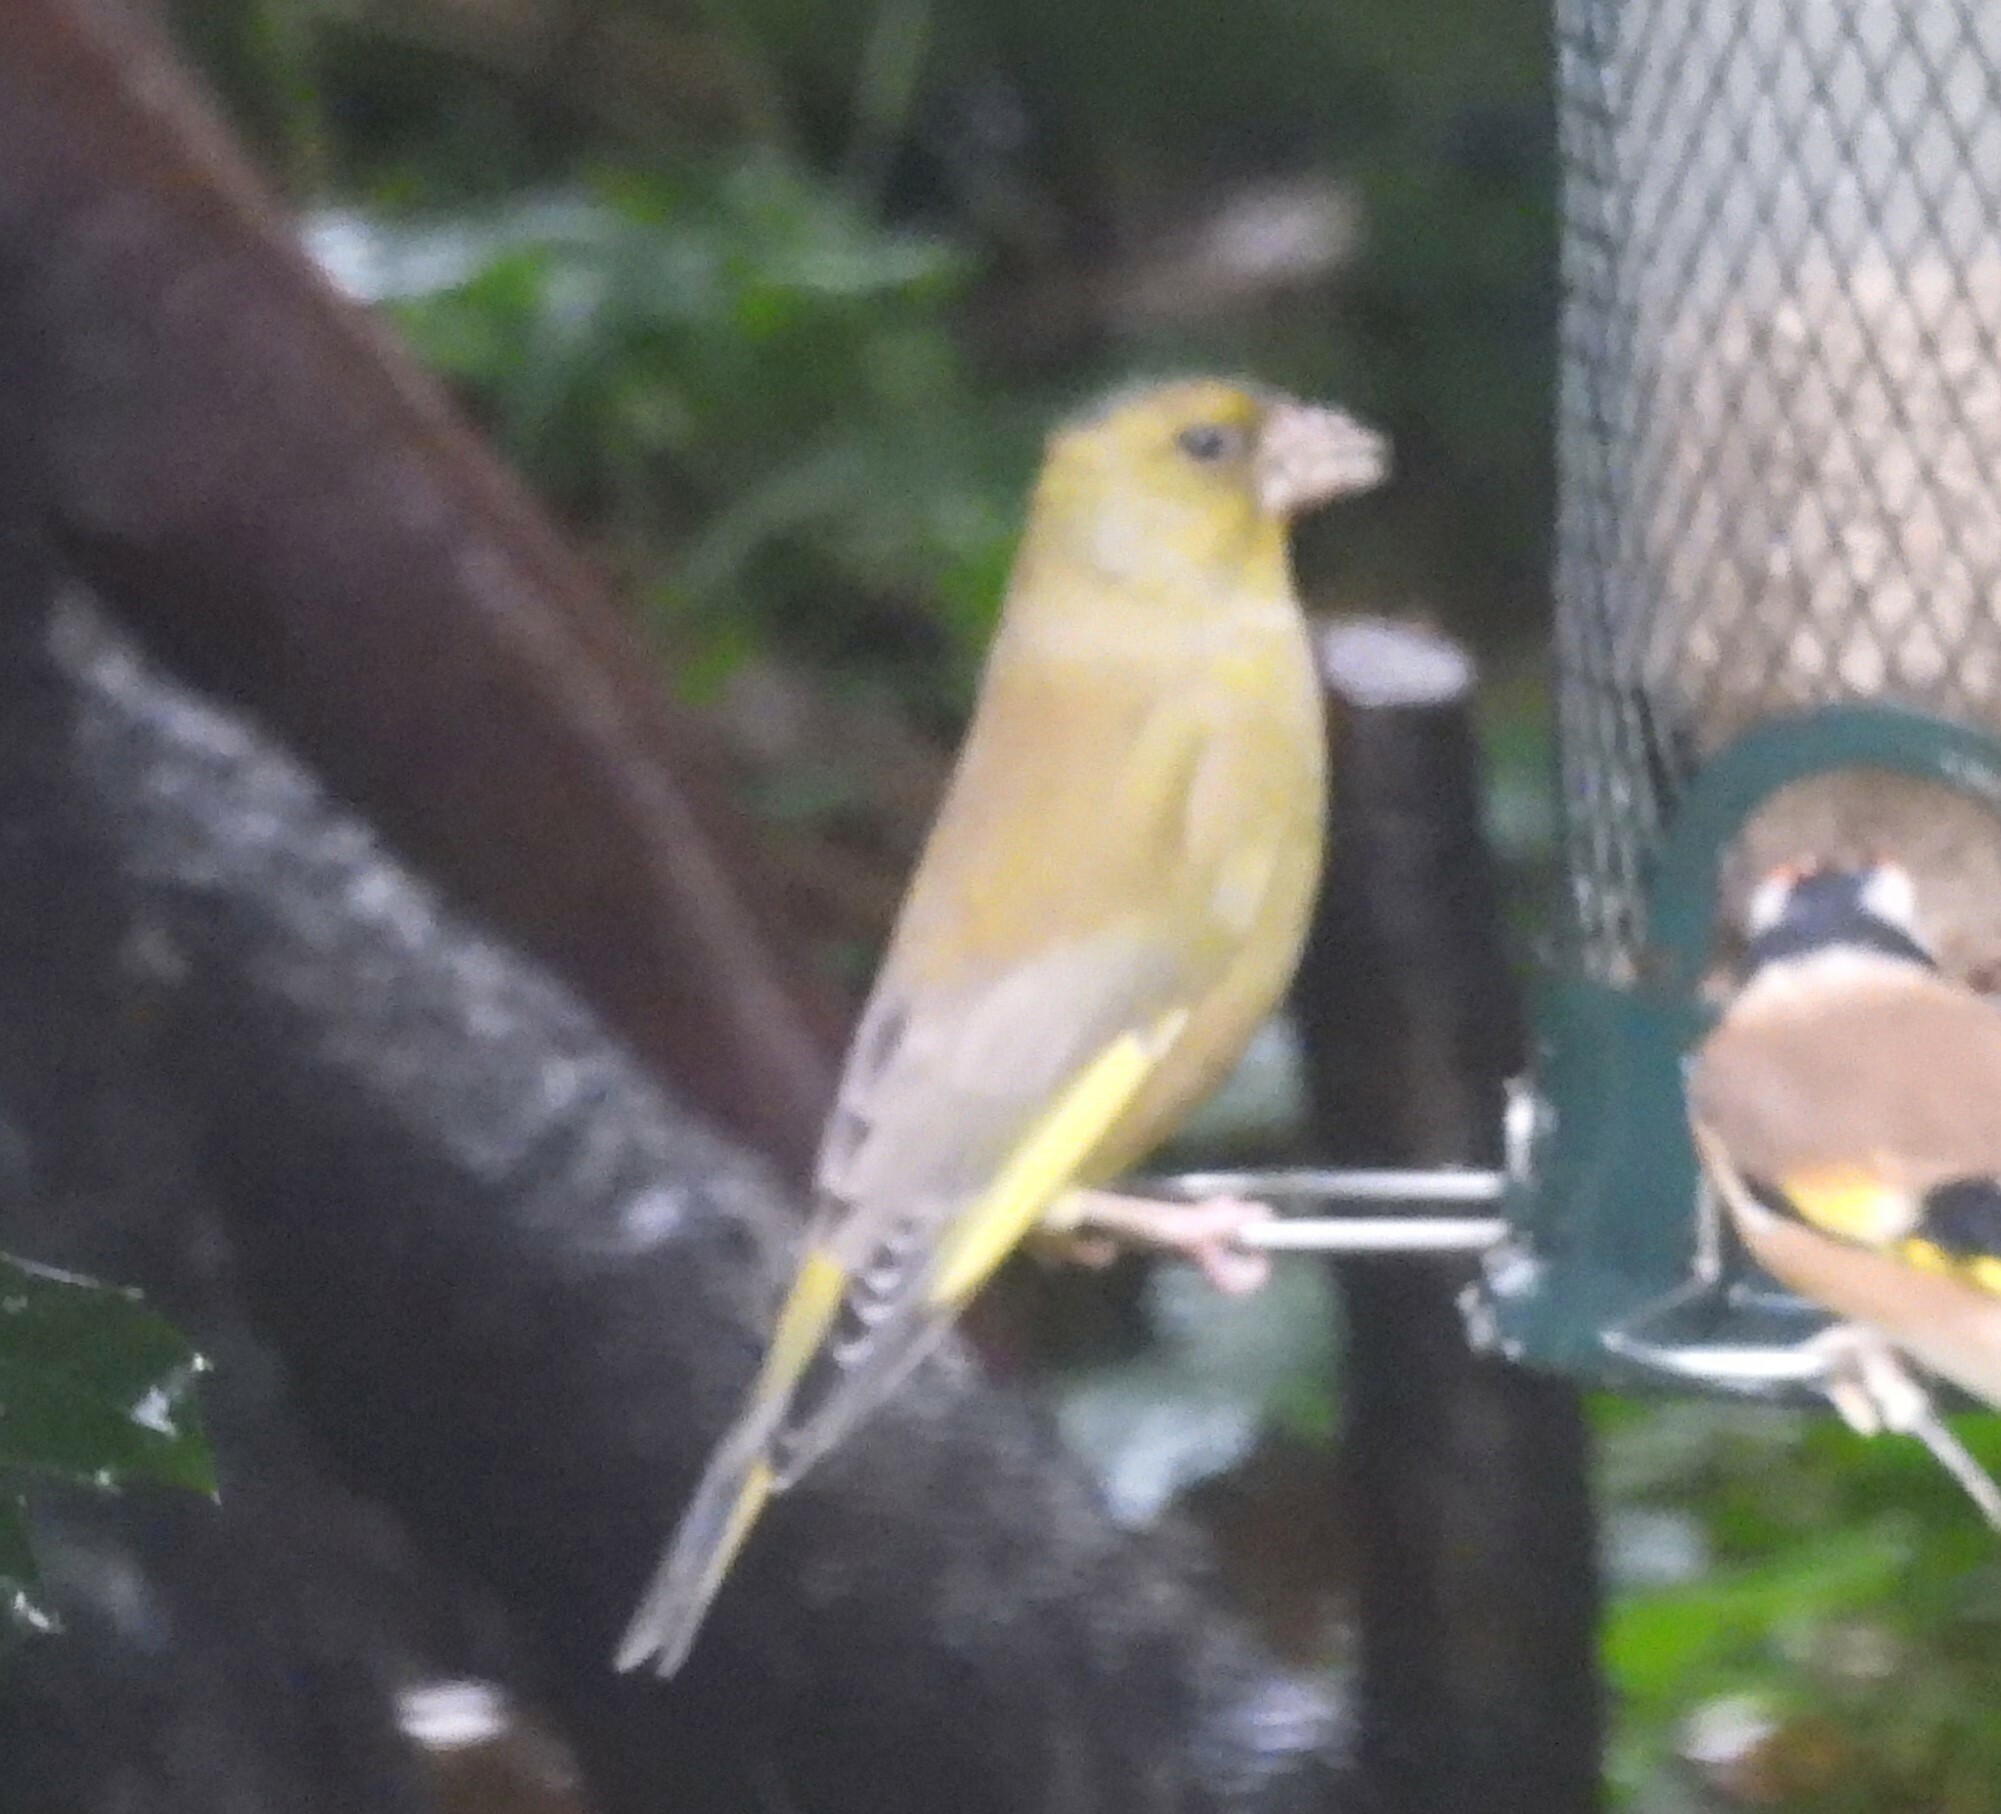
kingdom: Plantae
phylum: Tracheophyta
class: Liliopsida
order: Poales
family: Poaceae
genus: Chloris
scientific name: Chloris chloris
